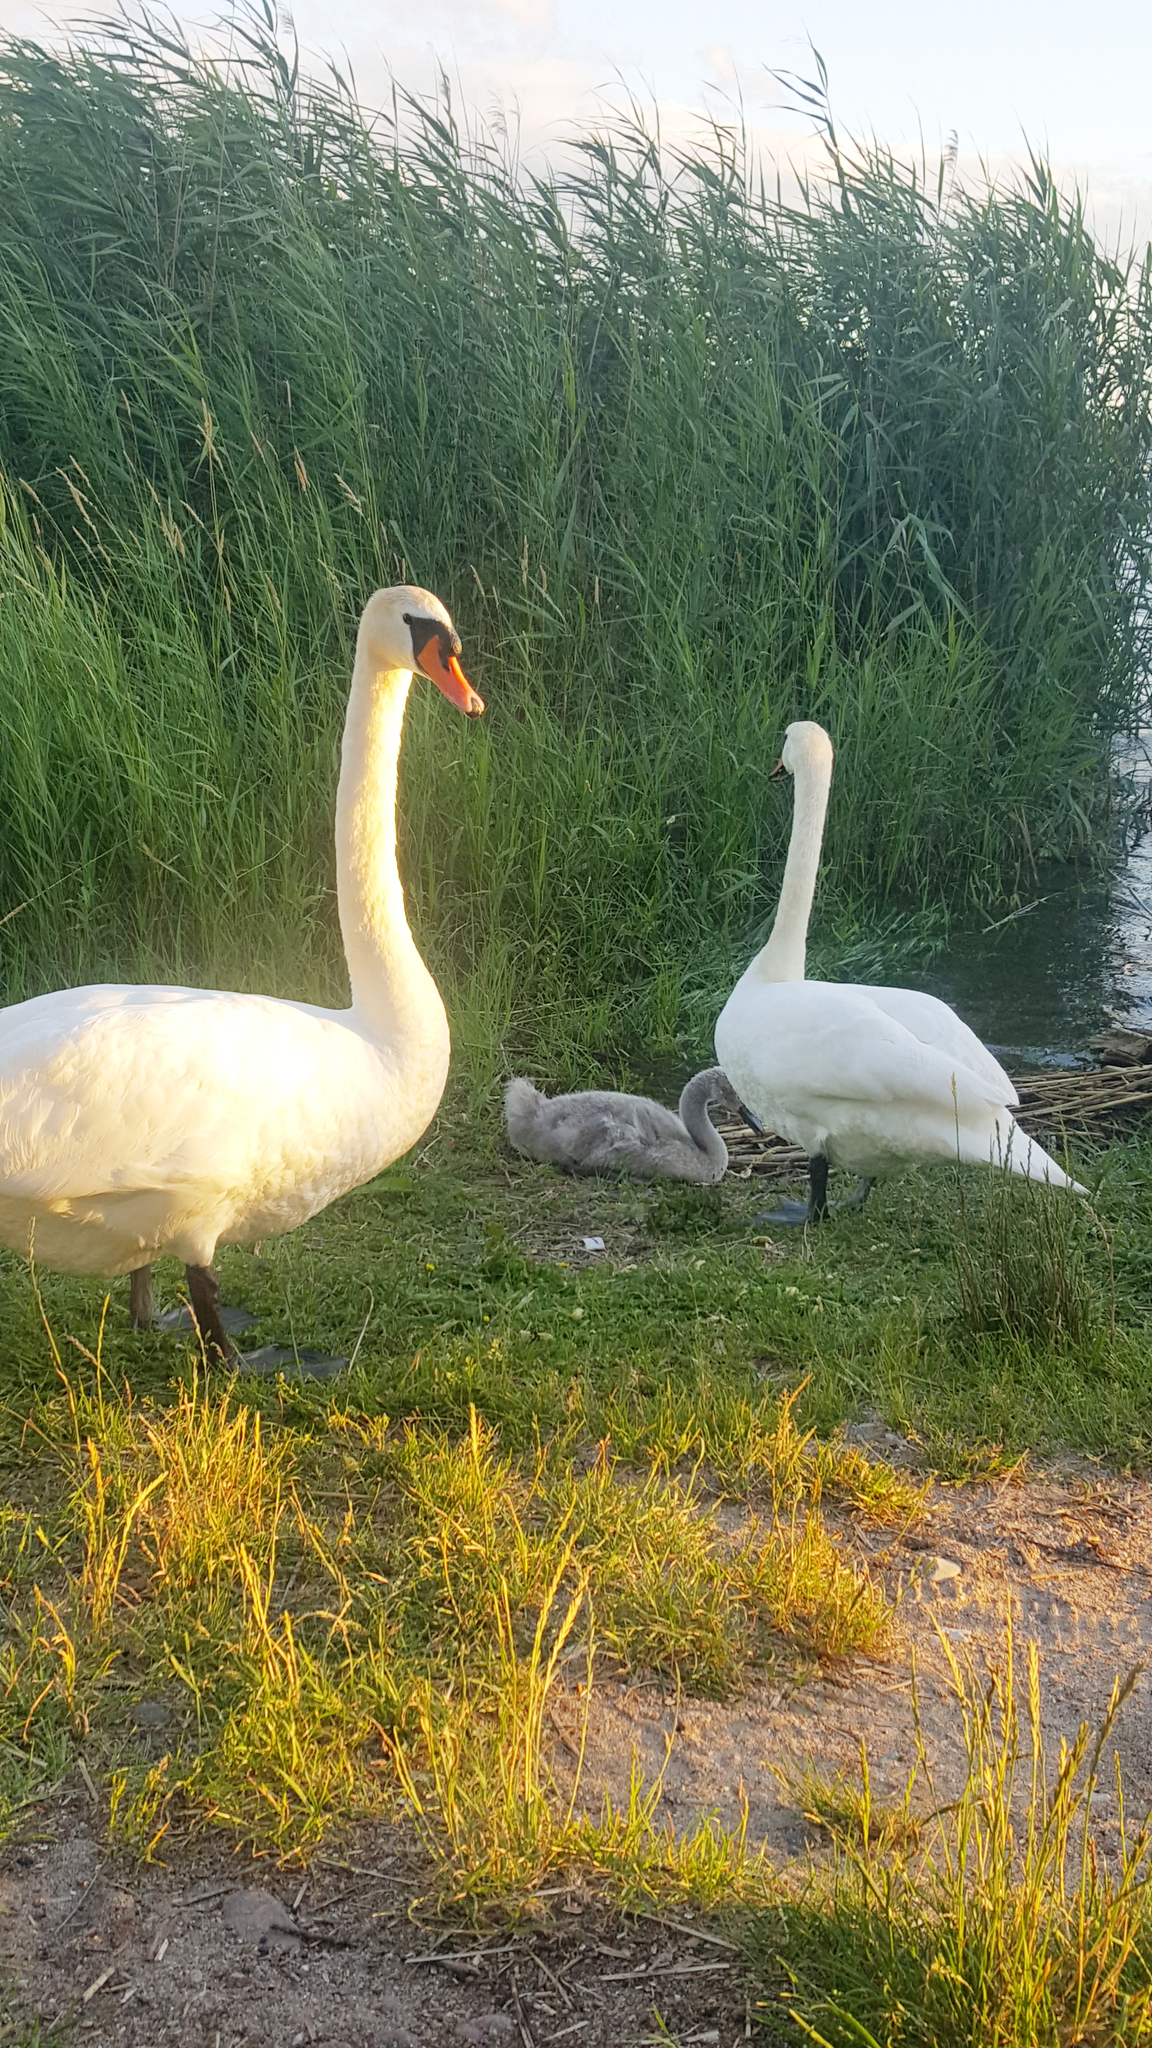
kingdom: Animalia
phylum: Chordata
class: Aves
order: Anseriformes
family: Anatidae
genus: Cygnus
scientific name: Cygnus olor
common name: Mute swan
